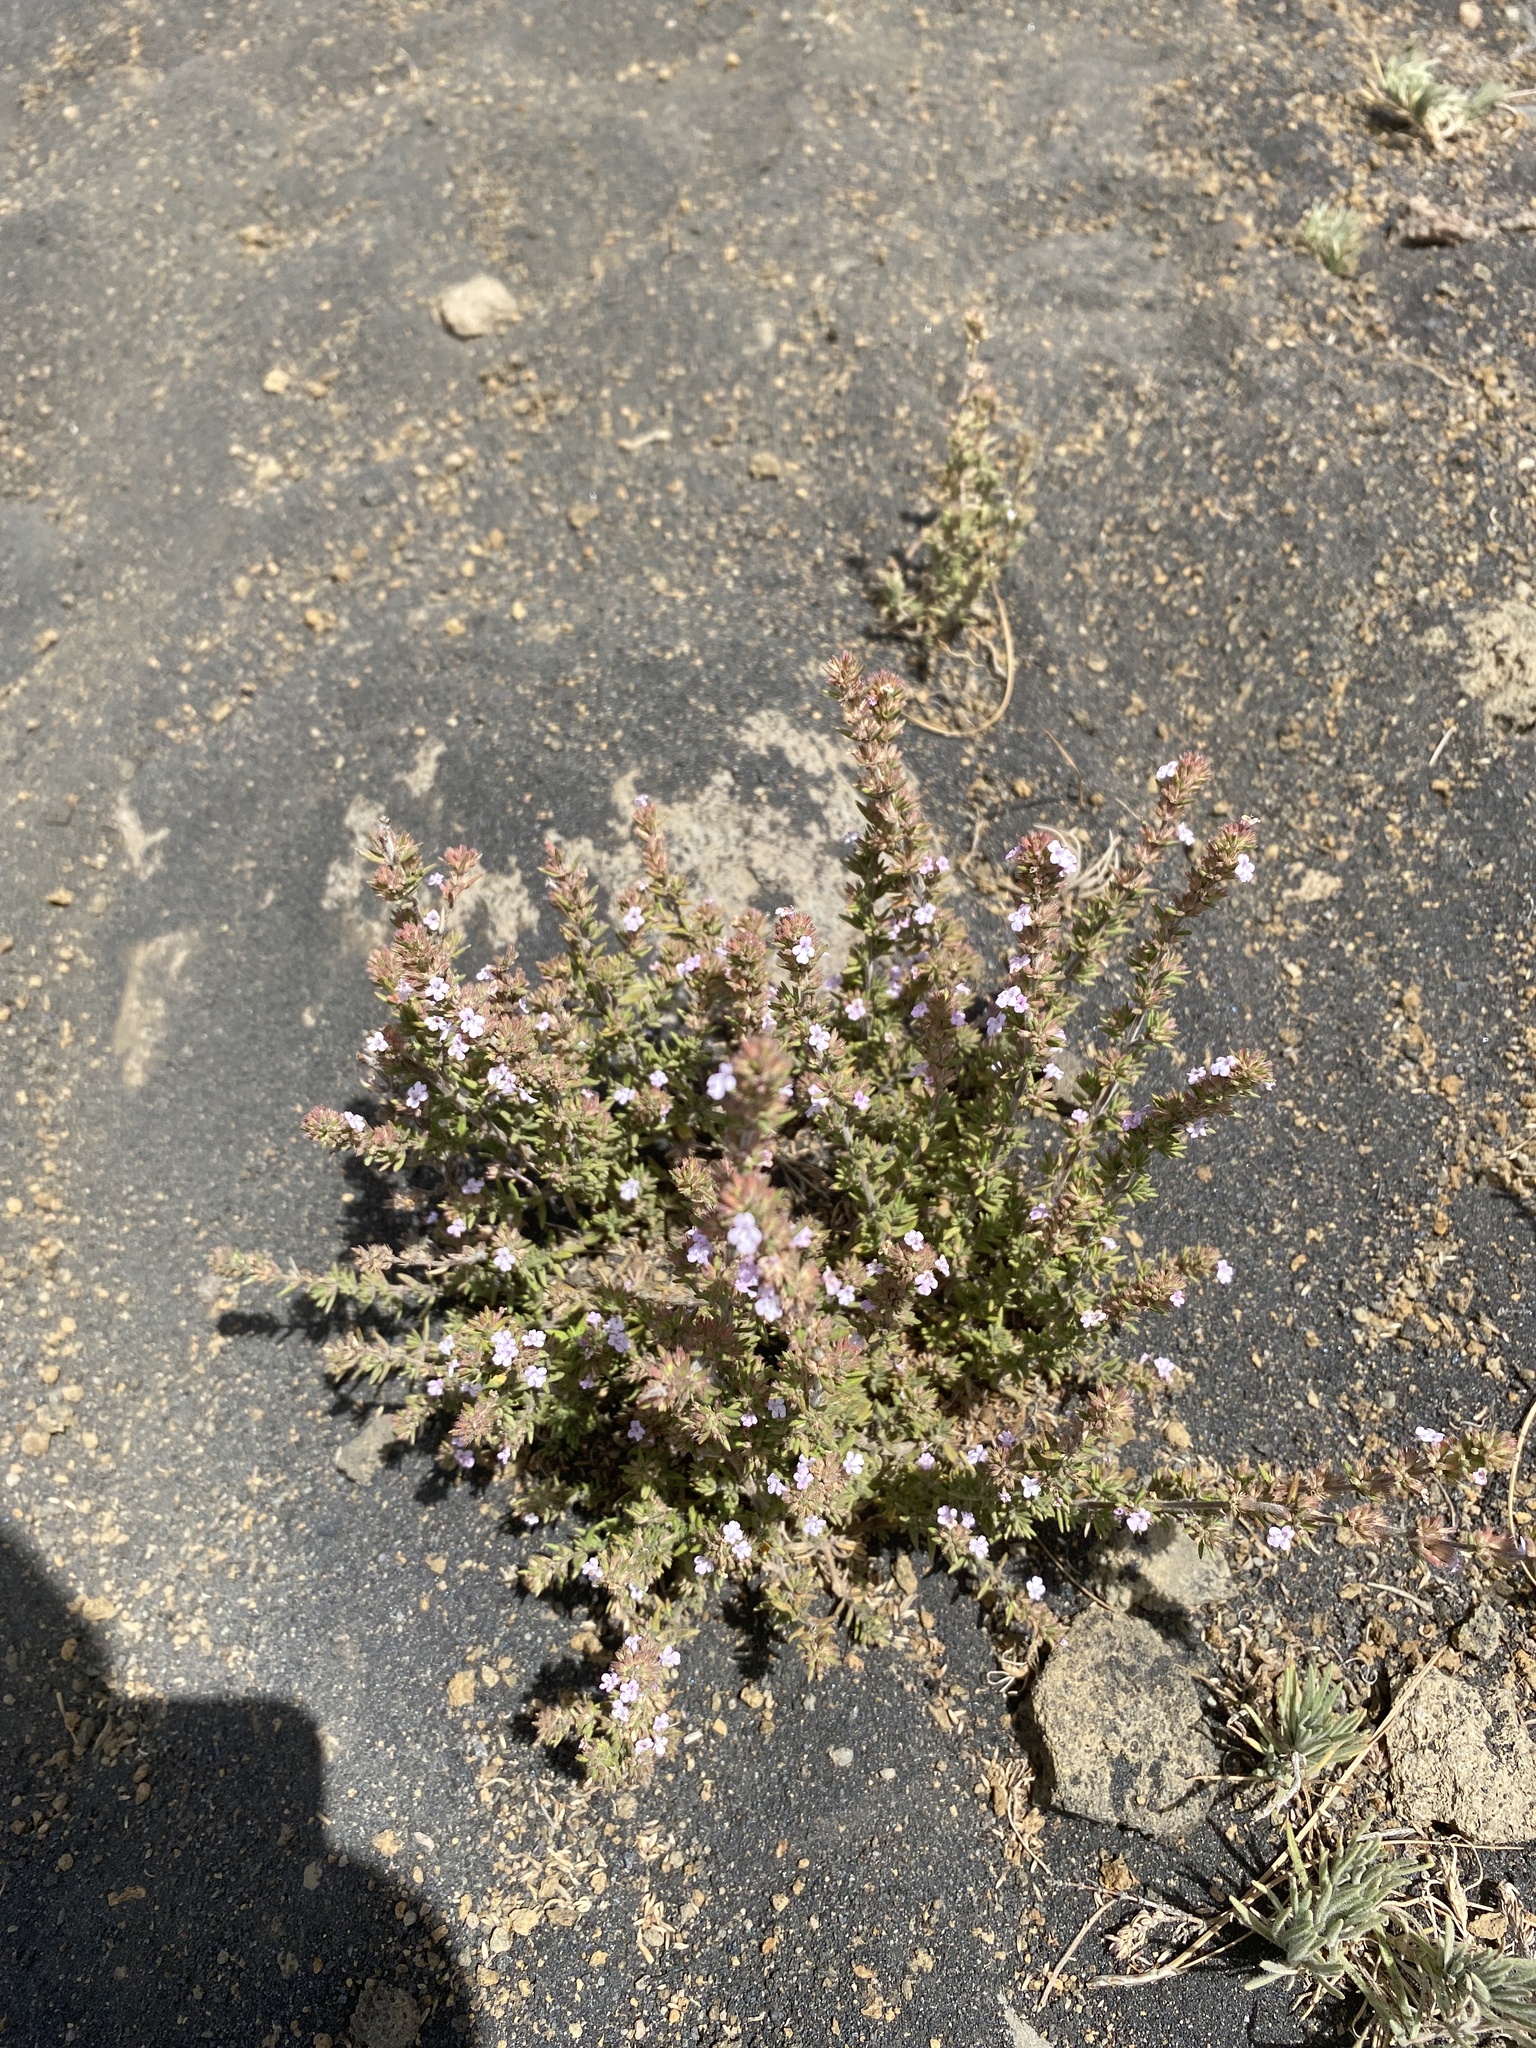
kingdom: Plantae
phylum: Tracheophyta
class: Magnoliopsida
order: Lamiales
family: Lamiaceae
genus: Micromeria
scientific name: Micromeria herpyllomorpha
